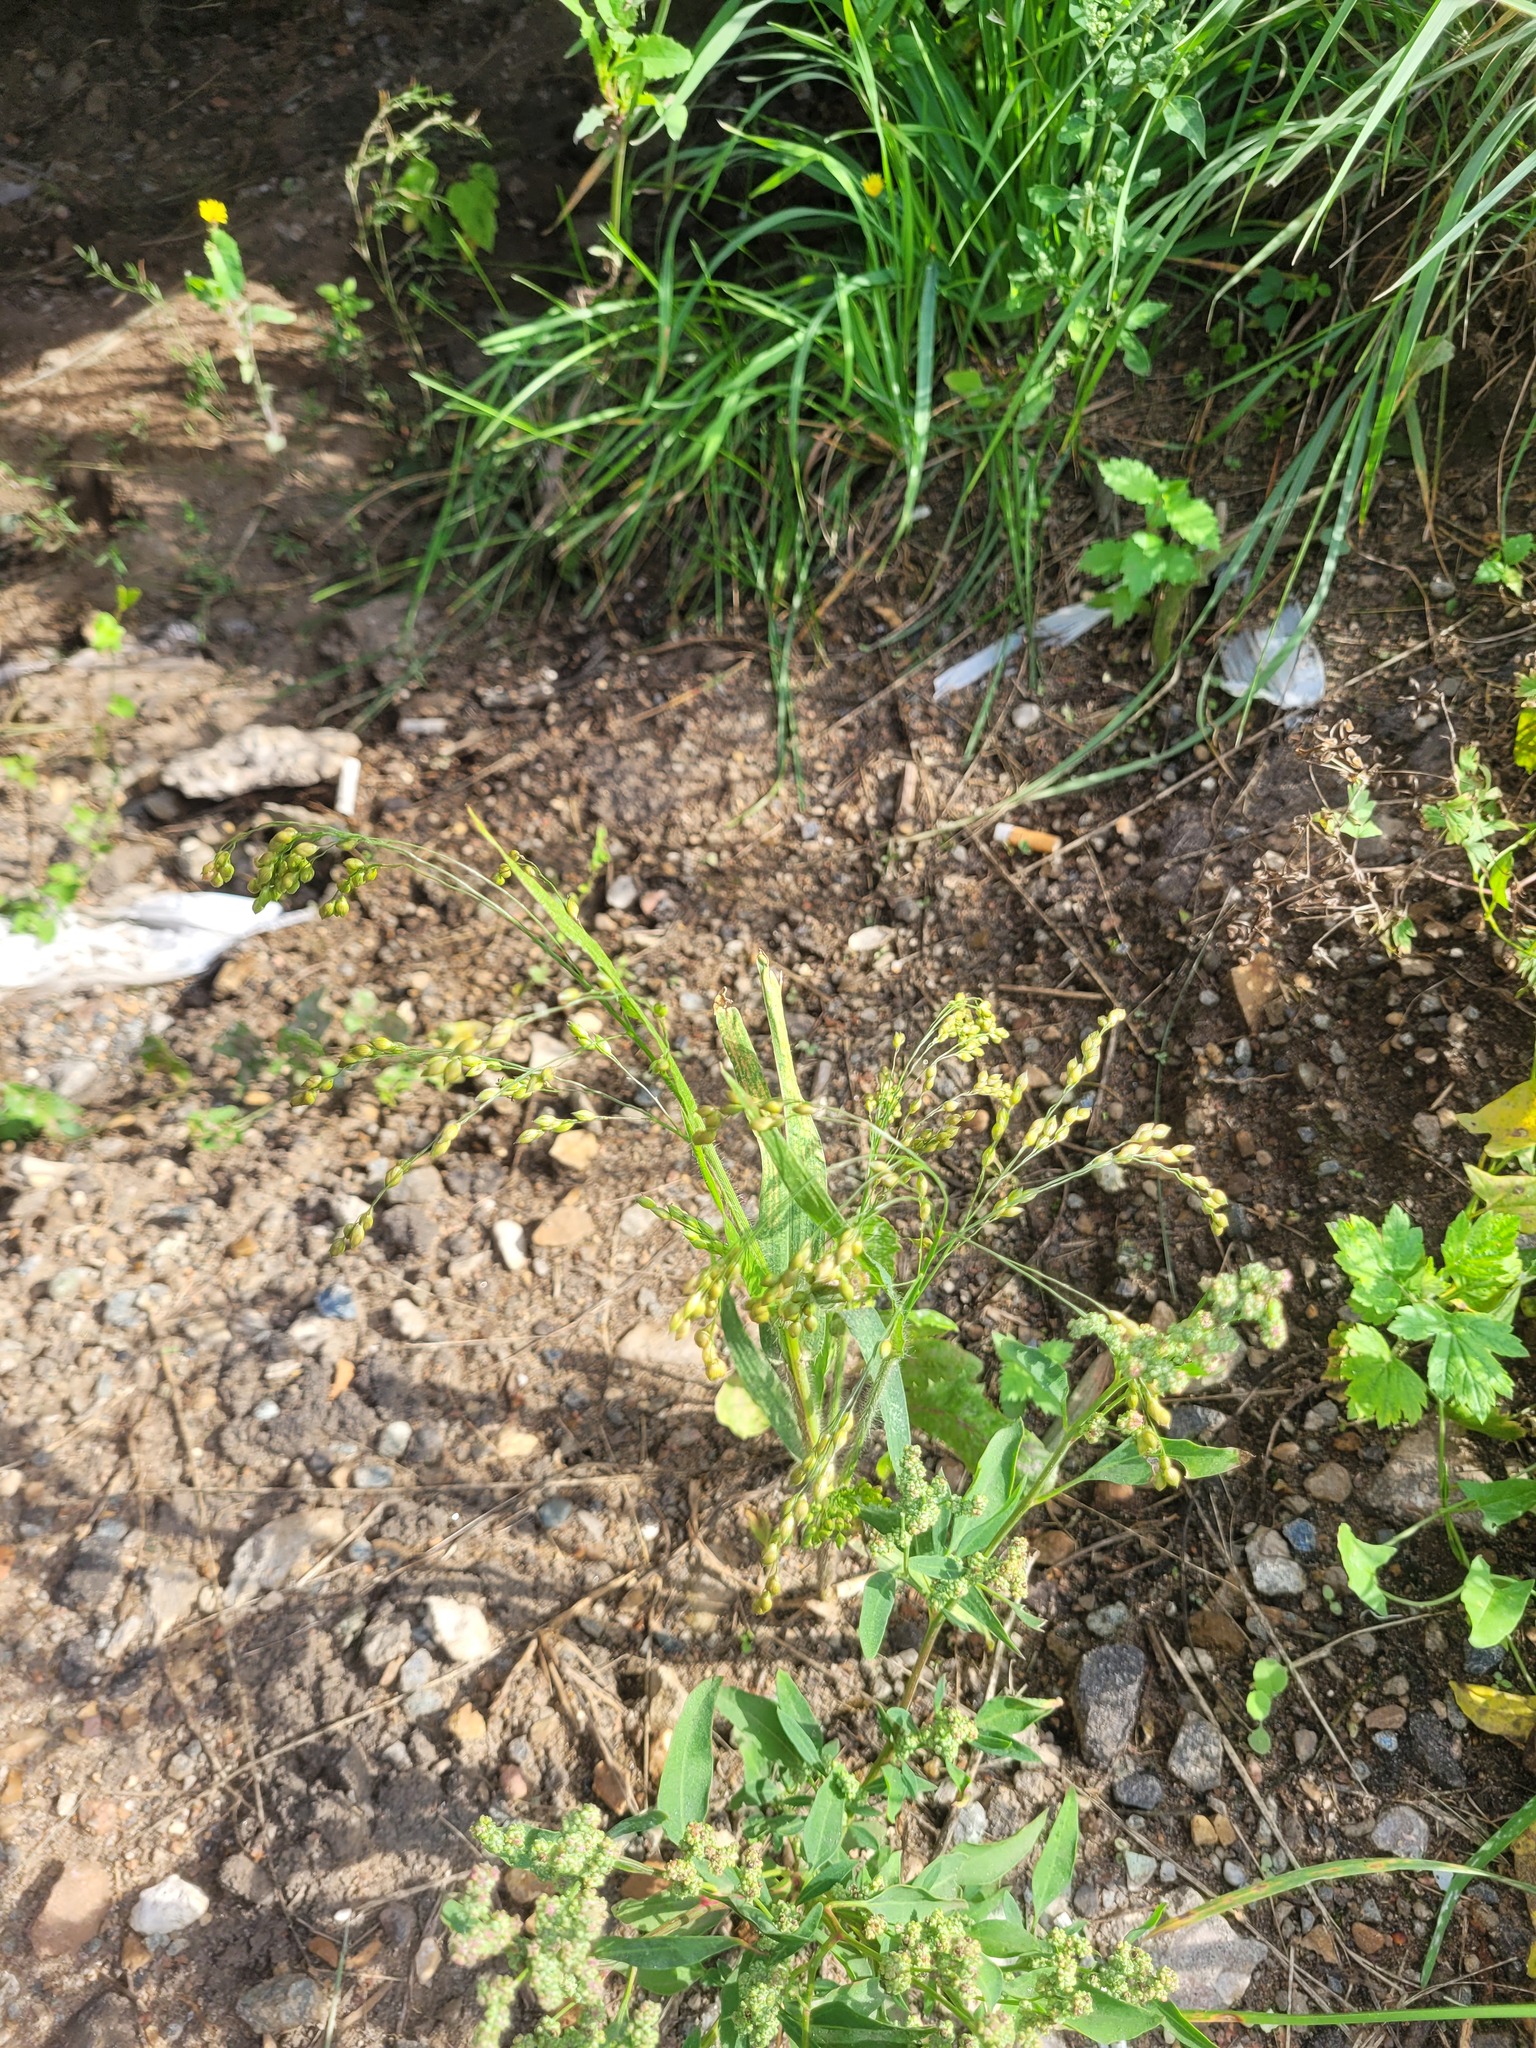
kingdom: Plantae
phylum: Tracheophyta
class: Liliopsida
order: Poales
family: Poaceae
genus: Panicum
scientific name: Panicum miliaceum
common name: Common millet
